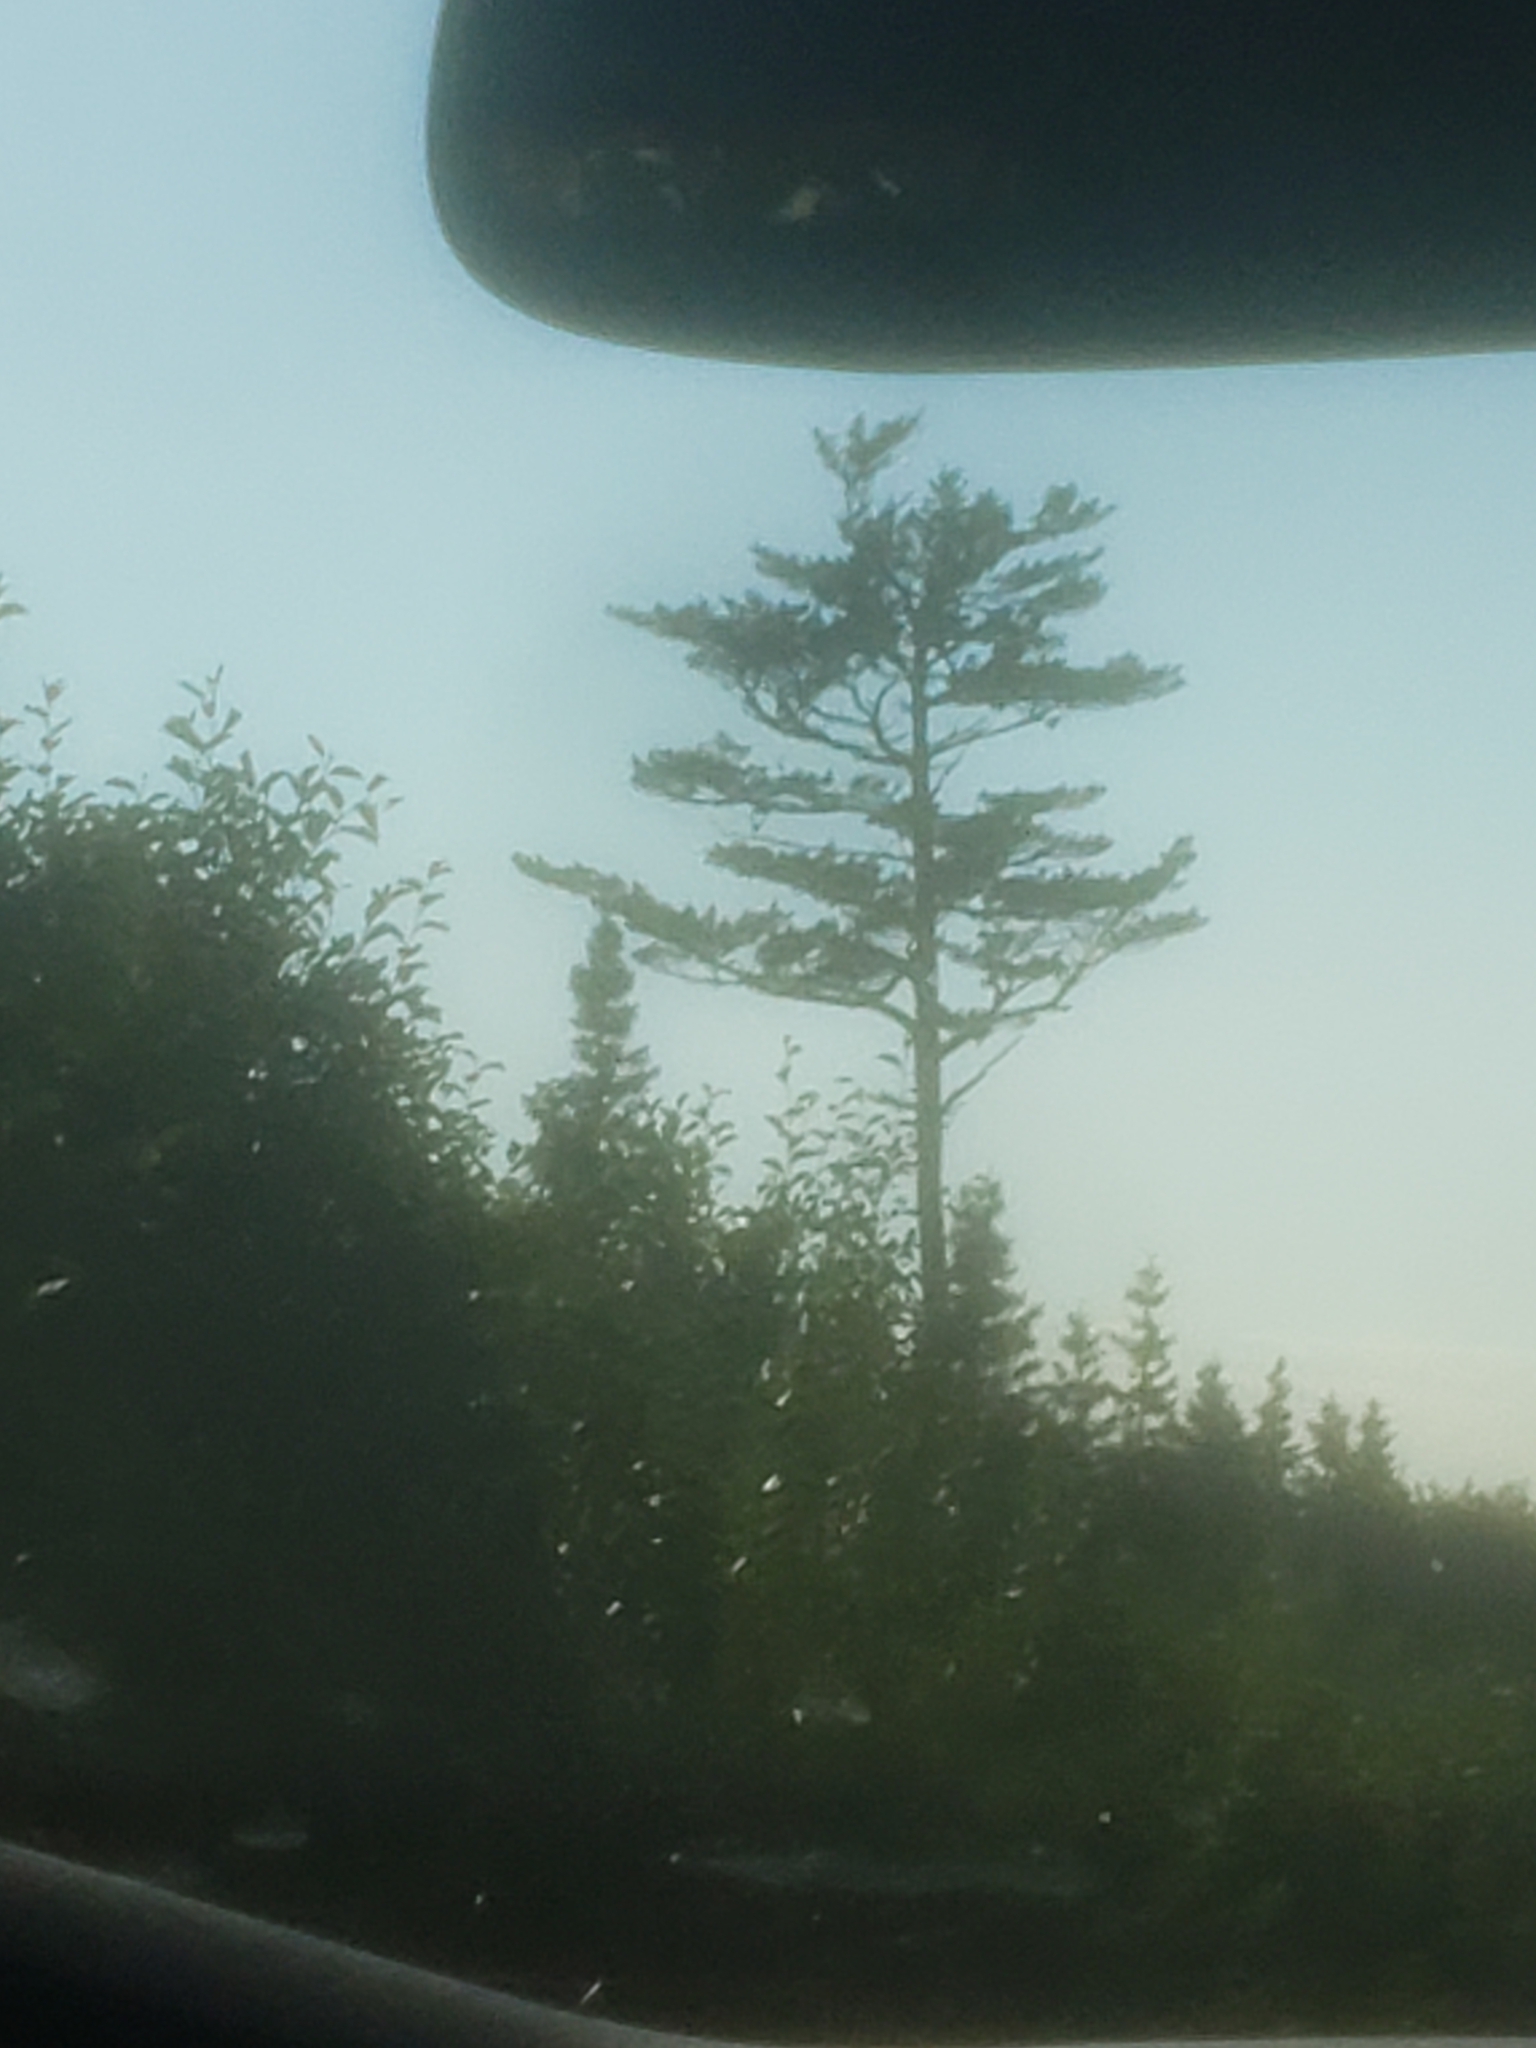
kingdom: Plantae
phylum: Tracheophyta
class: Pinopsida
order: Pinales
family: Pinaceae
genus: Pinus
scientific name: Pinus strobus
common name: Weymouth pine
